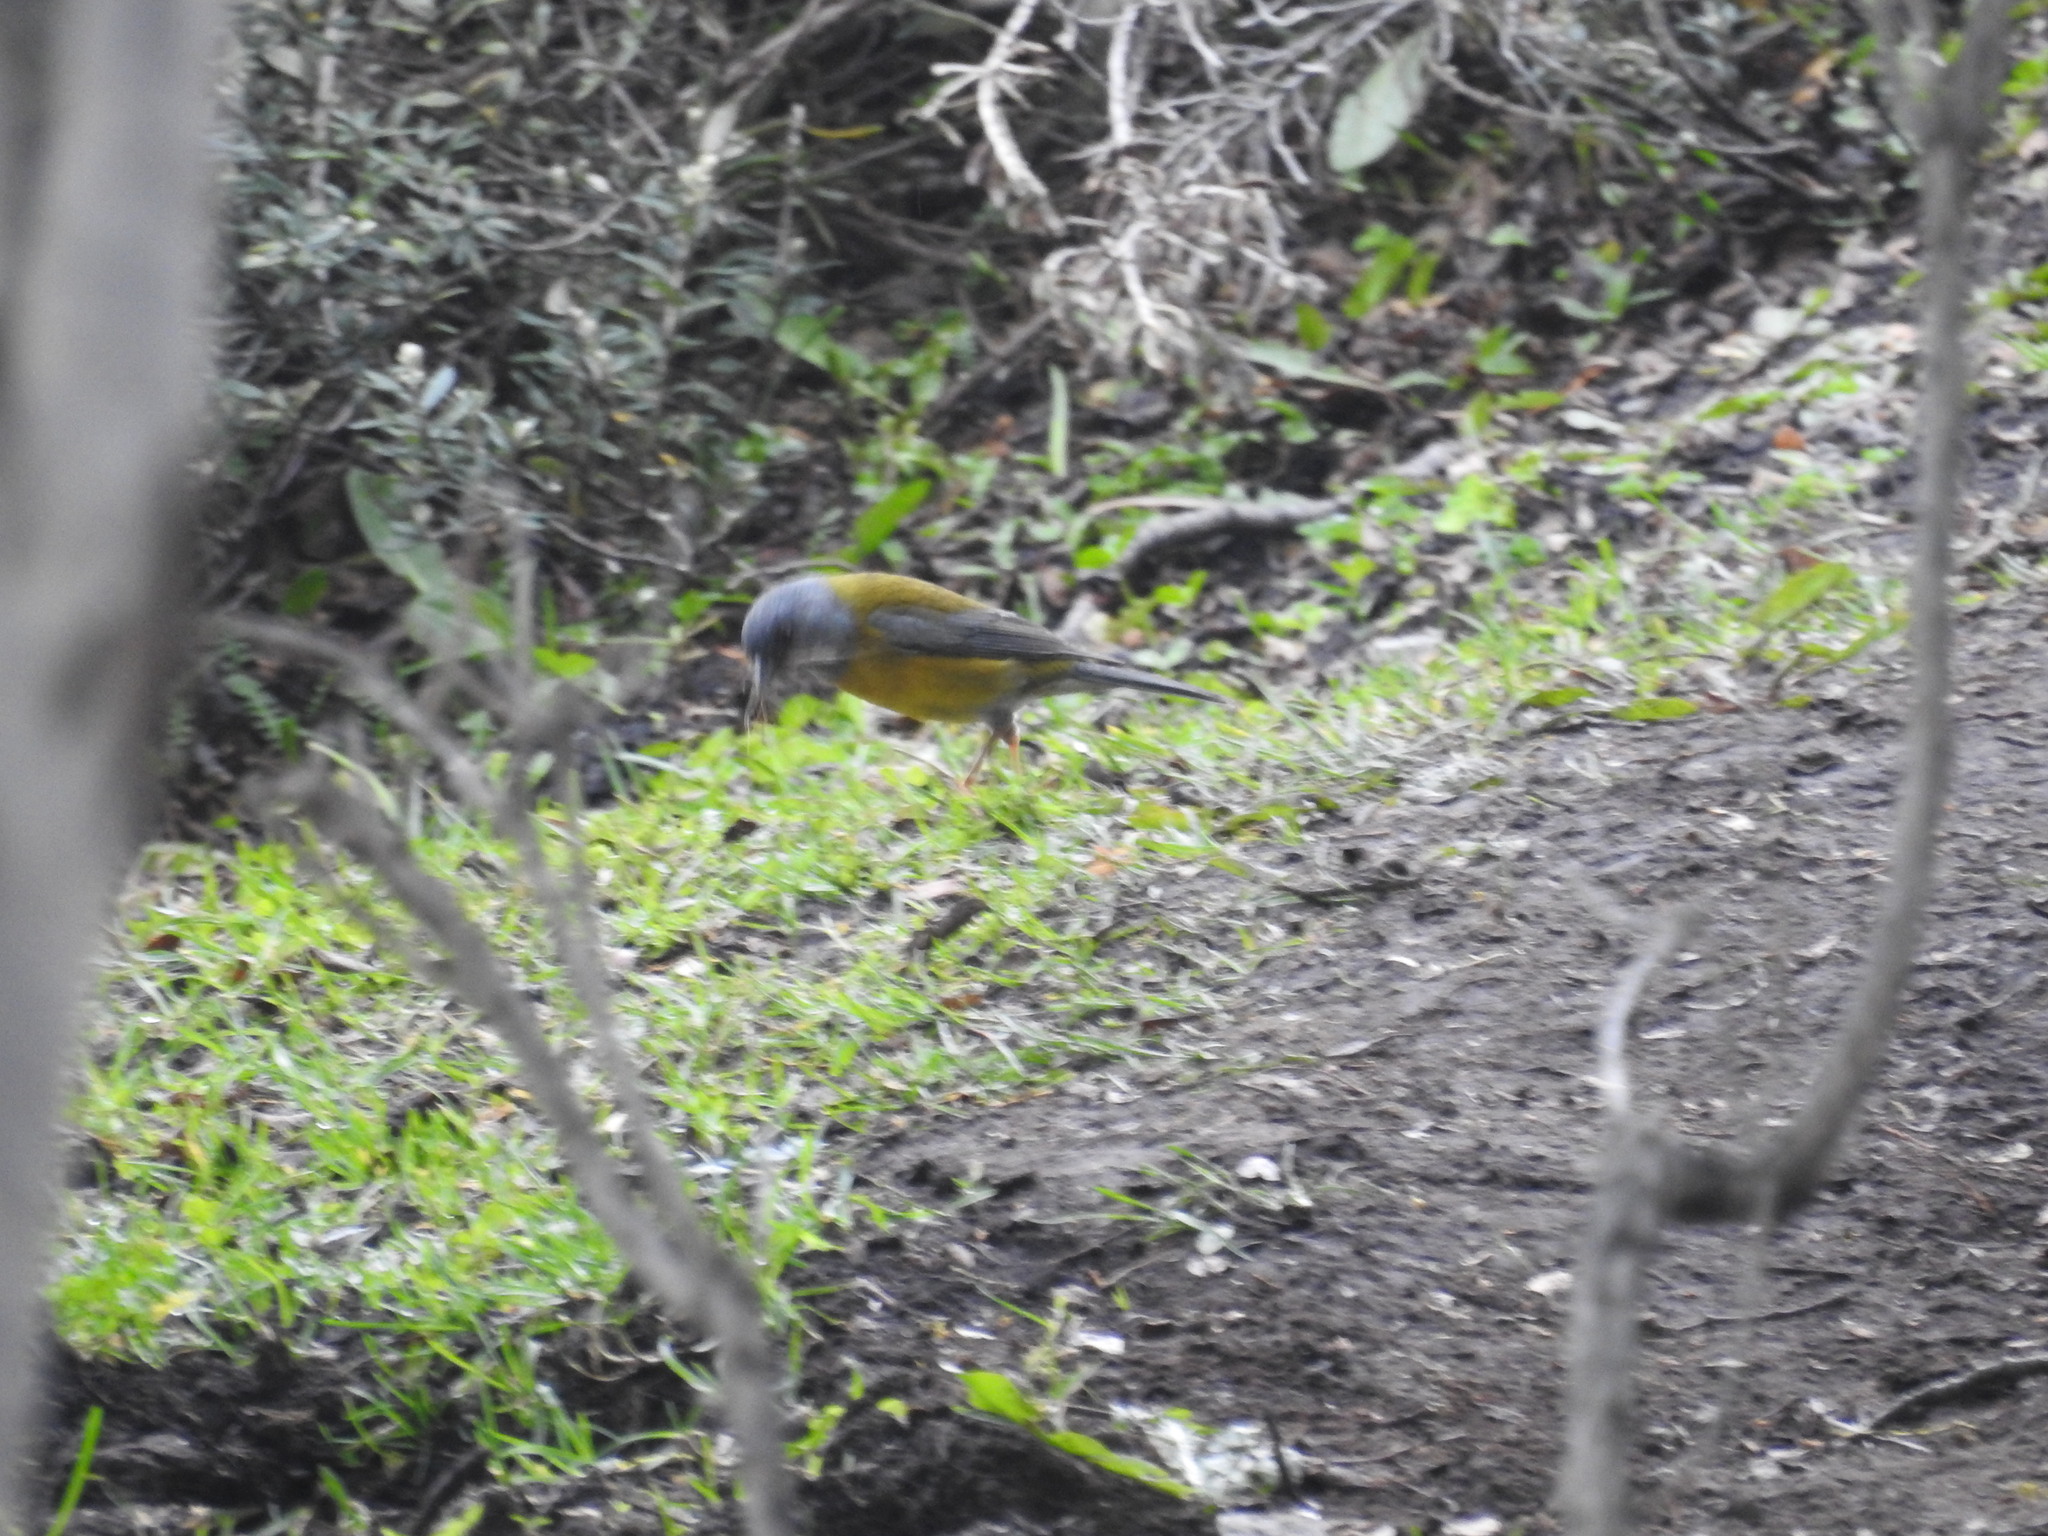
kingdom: Animalia
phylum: Chordata
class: Aves
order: Passeriformes
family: Thraupidae
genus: Phrygilus
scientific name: Phrygilus patagonicus
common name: Patagonian sierra finch
